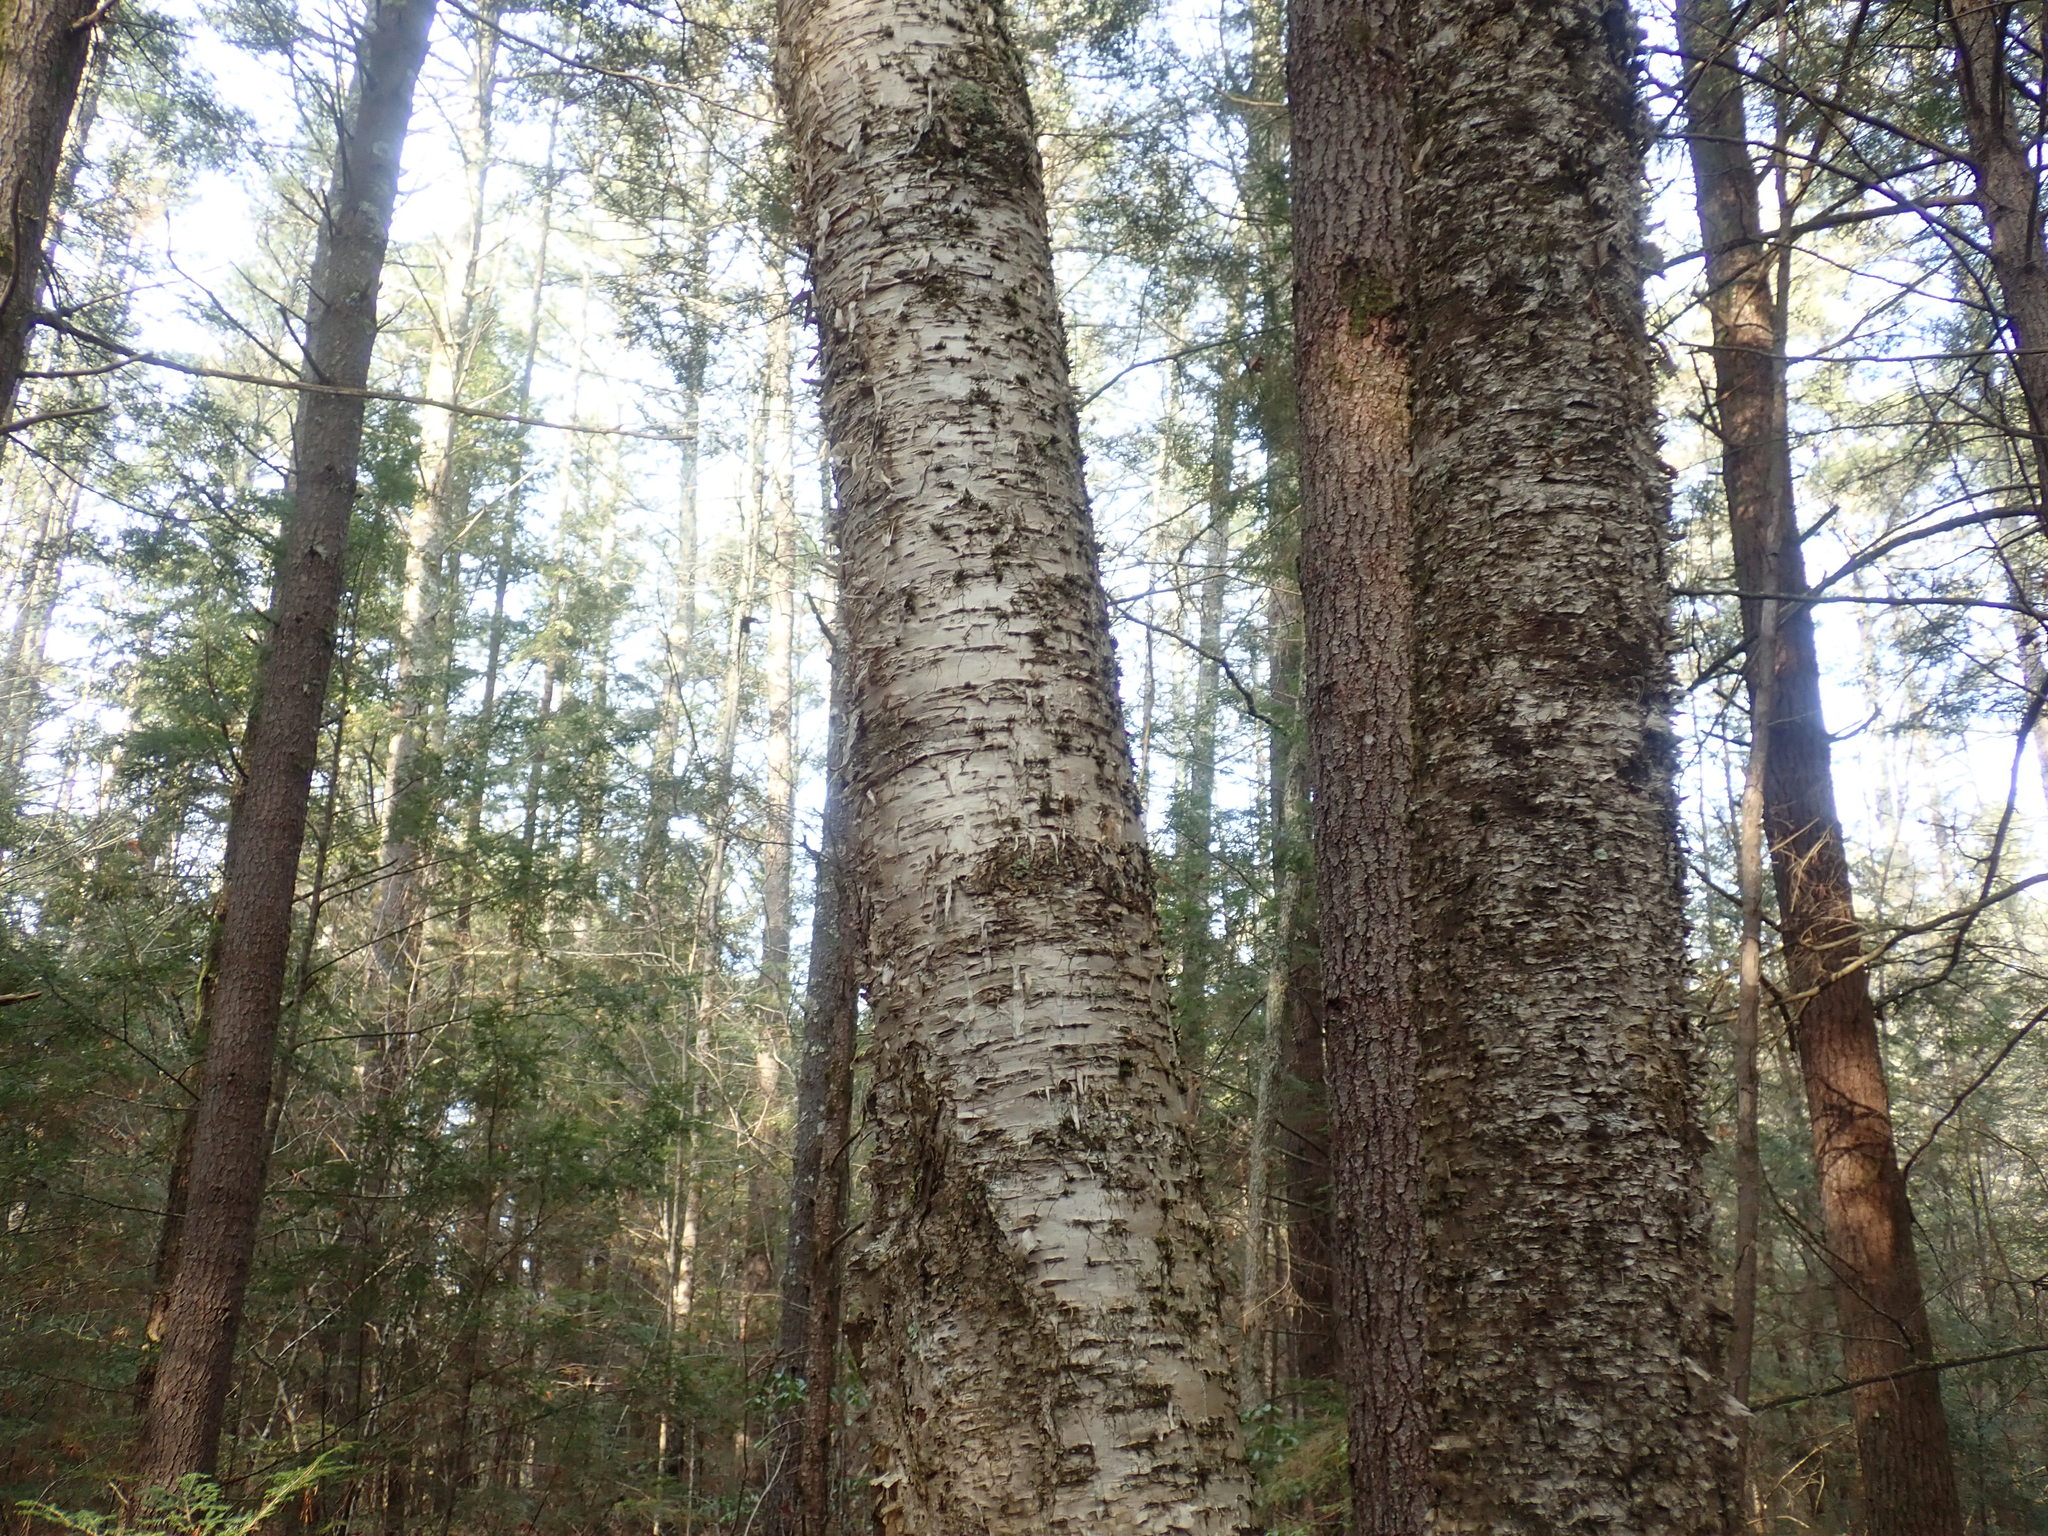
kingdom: Plantae
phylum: Tracheophyta
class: Magnoliopsida
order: Fagales
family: Betulaceae
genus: Betula
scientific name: Betula alleghaniensis
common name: Yellow birch
